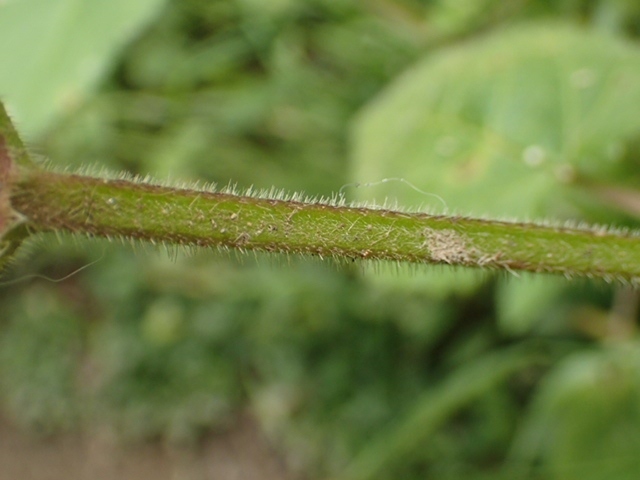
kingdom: Plantae
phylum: Tracheophyta
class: Magnoliopsida
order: Lamiales
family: Lamiaceae
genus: Stachys
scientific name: Stachys sylvatica
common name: Hedge woundwort
